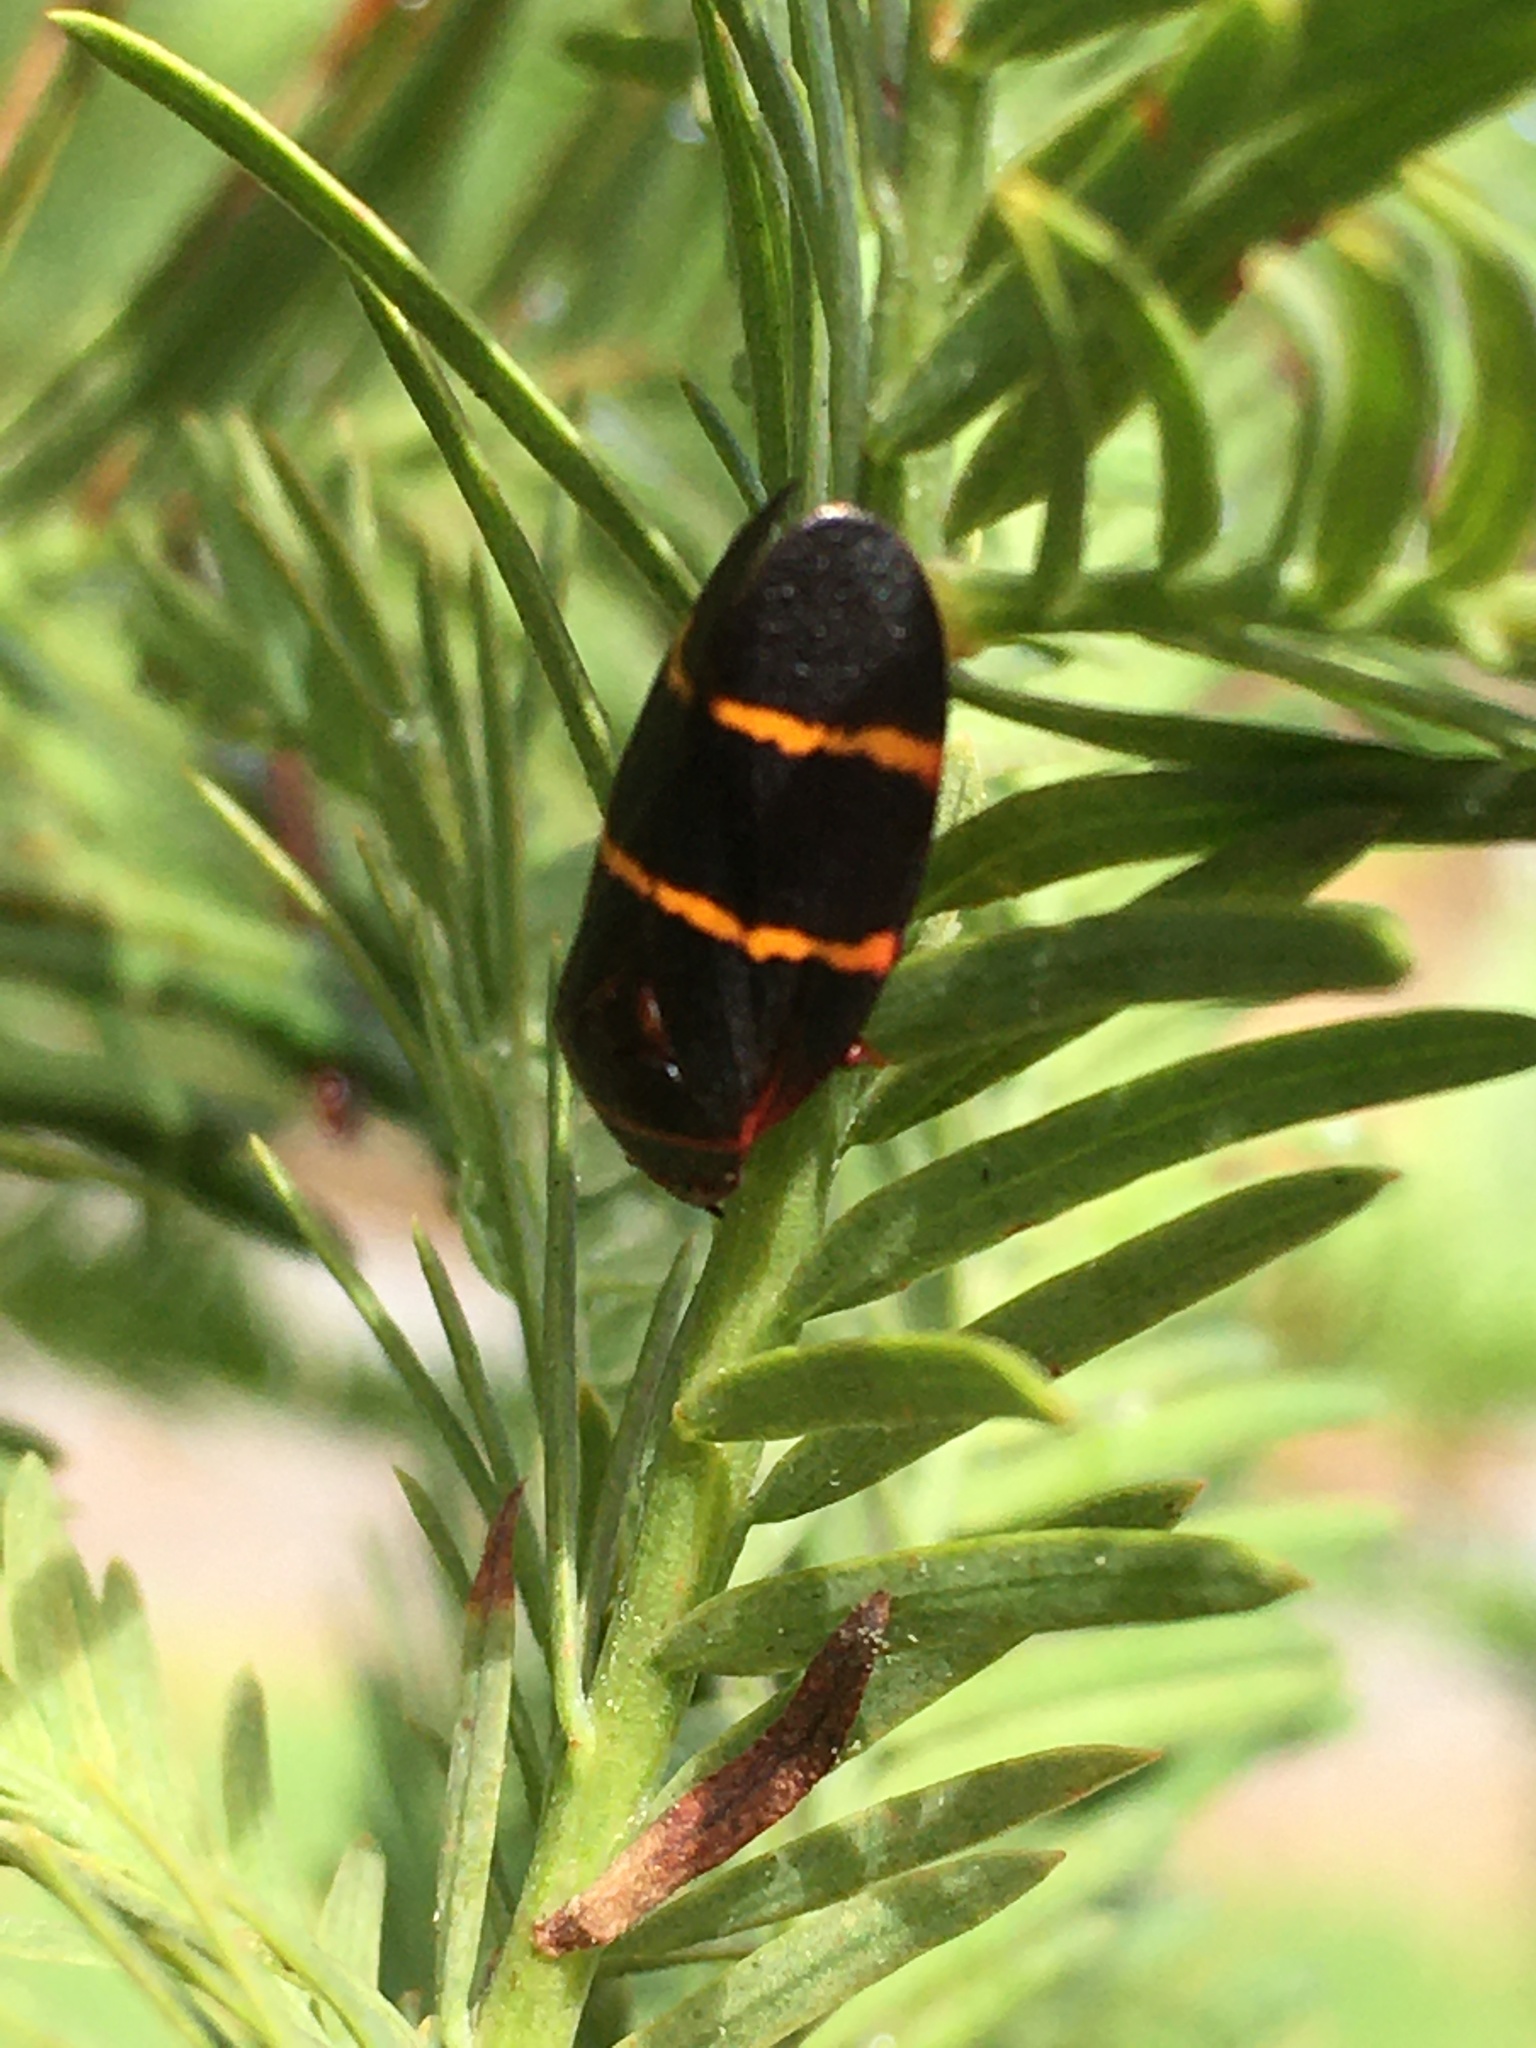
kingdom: Animalia
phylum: Arthropoda
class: Insecta
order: Hemiptera
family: Cercopidae
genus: Prosapia
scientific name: Prosapia bicincta
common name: Twolined spittlebug
